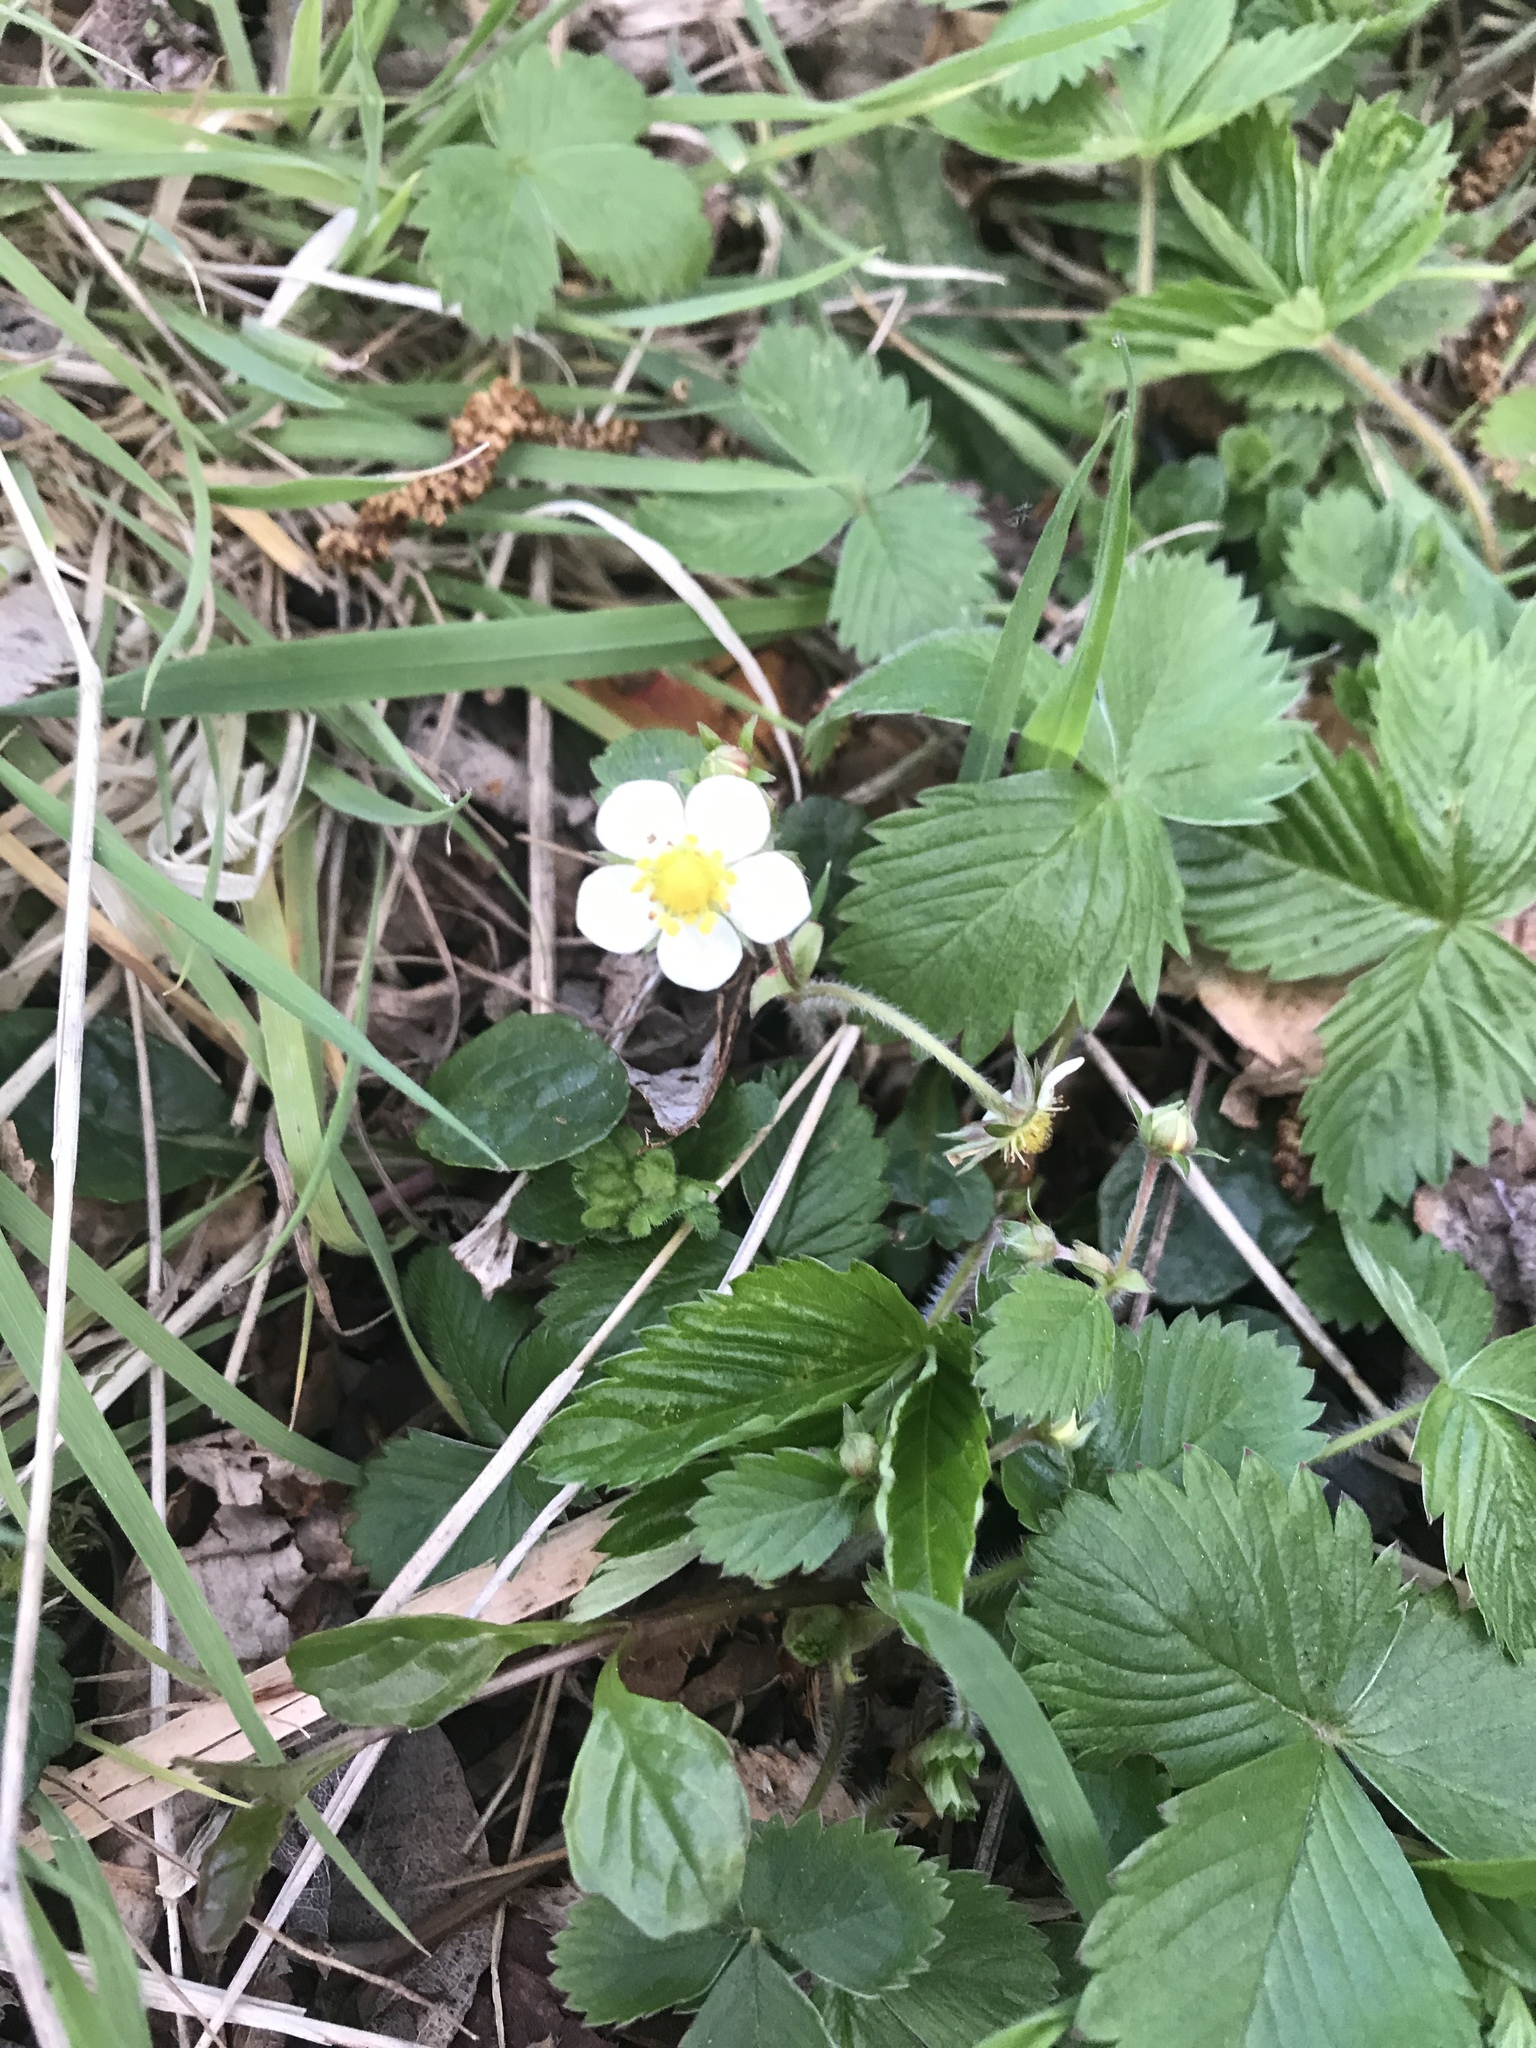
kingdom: Plantae
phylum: Tracheophyta
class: Magnoliopsida
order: Rosales
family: Rosaceae
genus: Fragaria
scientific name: Fragaria vesca
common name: Wild strawberry
